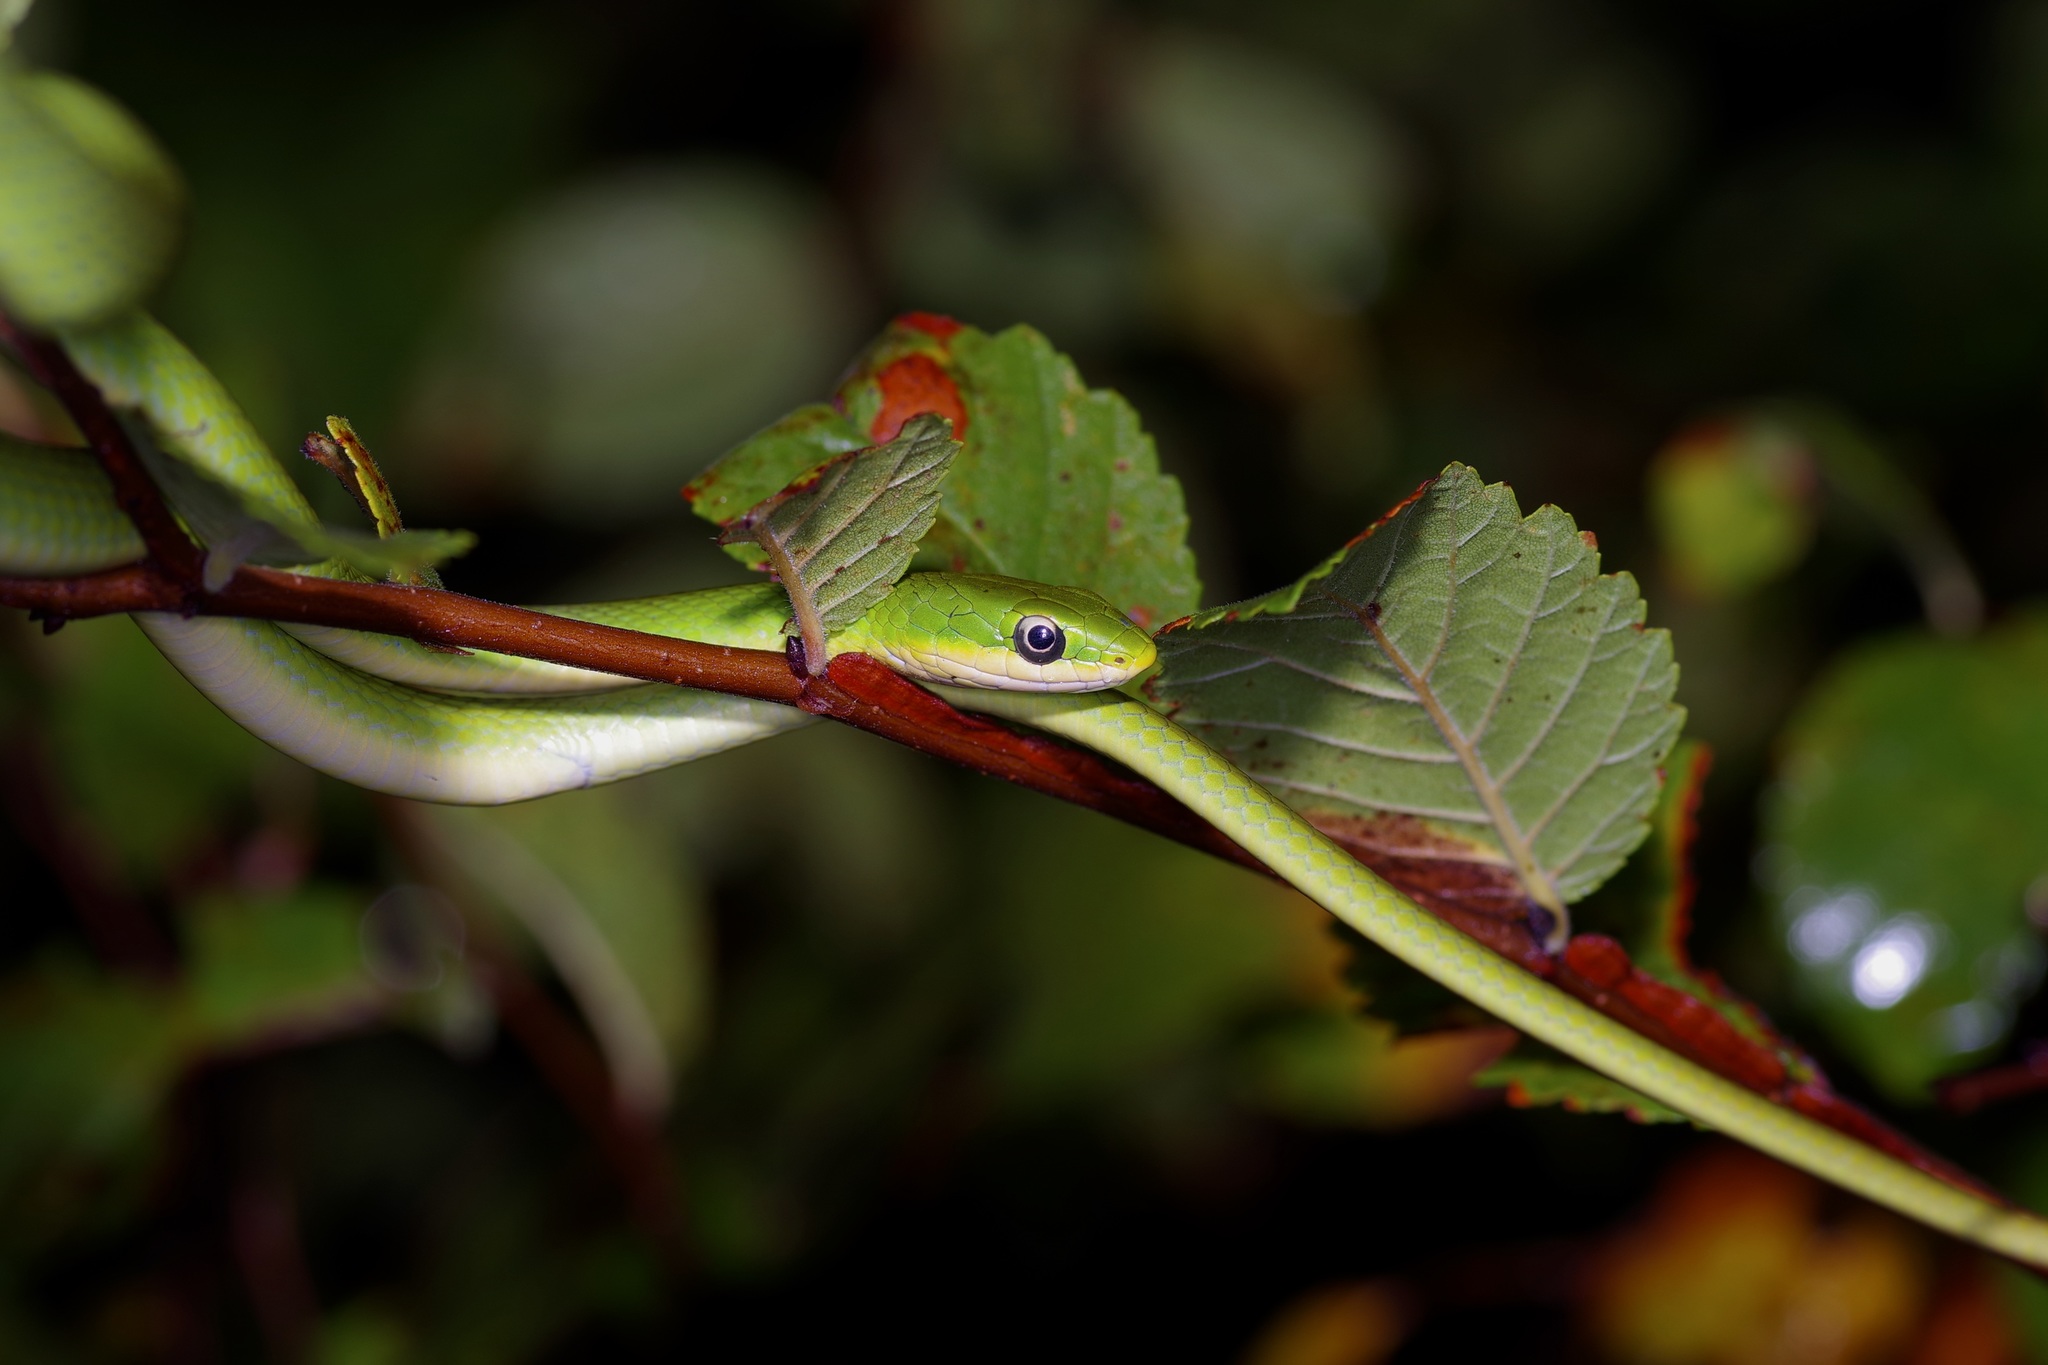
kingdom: Animalia
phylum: Chordata
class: Squamata
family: Colubridae
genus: Opheodrys
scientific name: Opheodrys aestivus
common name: Rough greensnake
